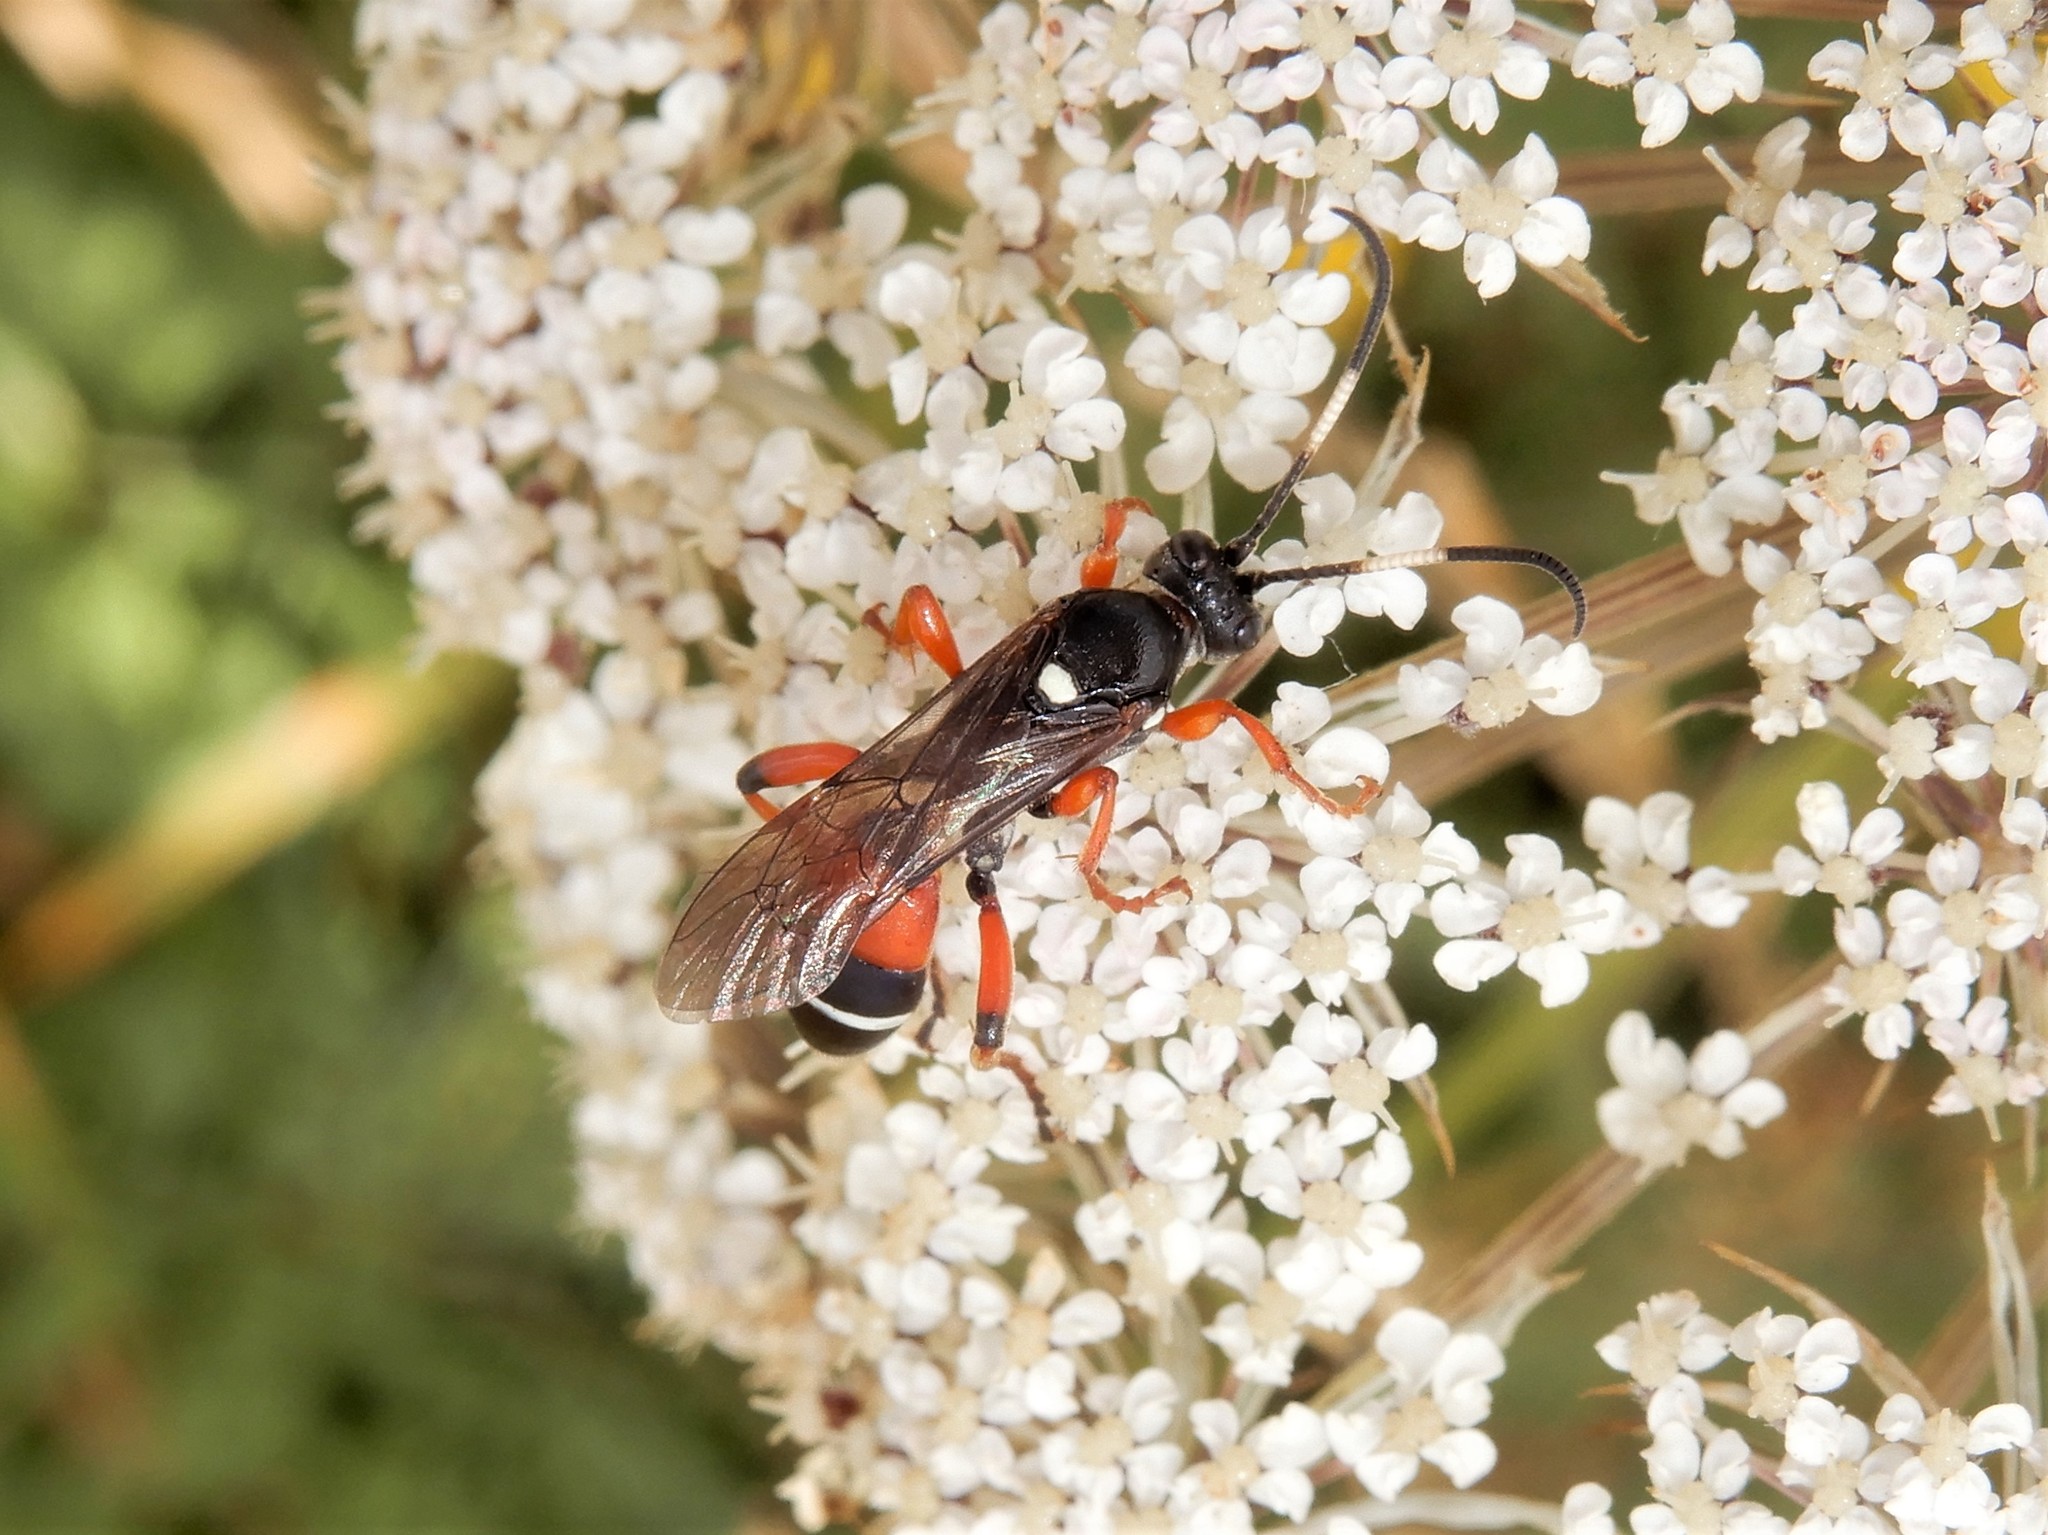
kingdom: Animalia
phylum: Arthropoda
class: Insecta
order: Hymenoptera
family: Ichneumonidae
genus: Ichneumon
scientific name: Ichneumon promissorius
